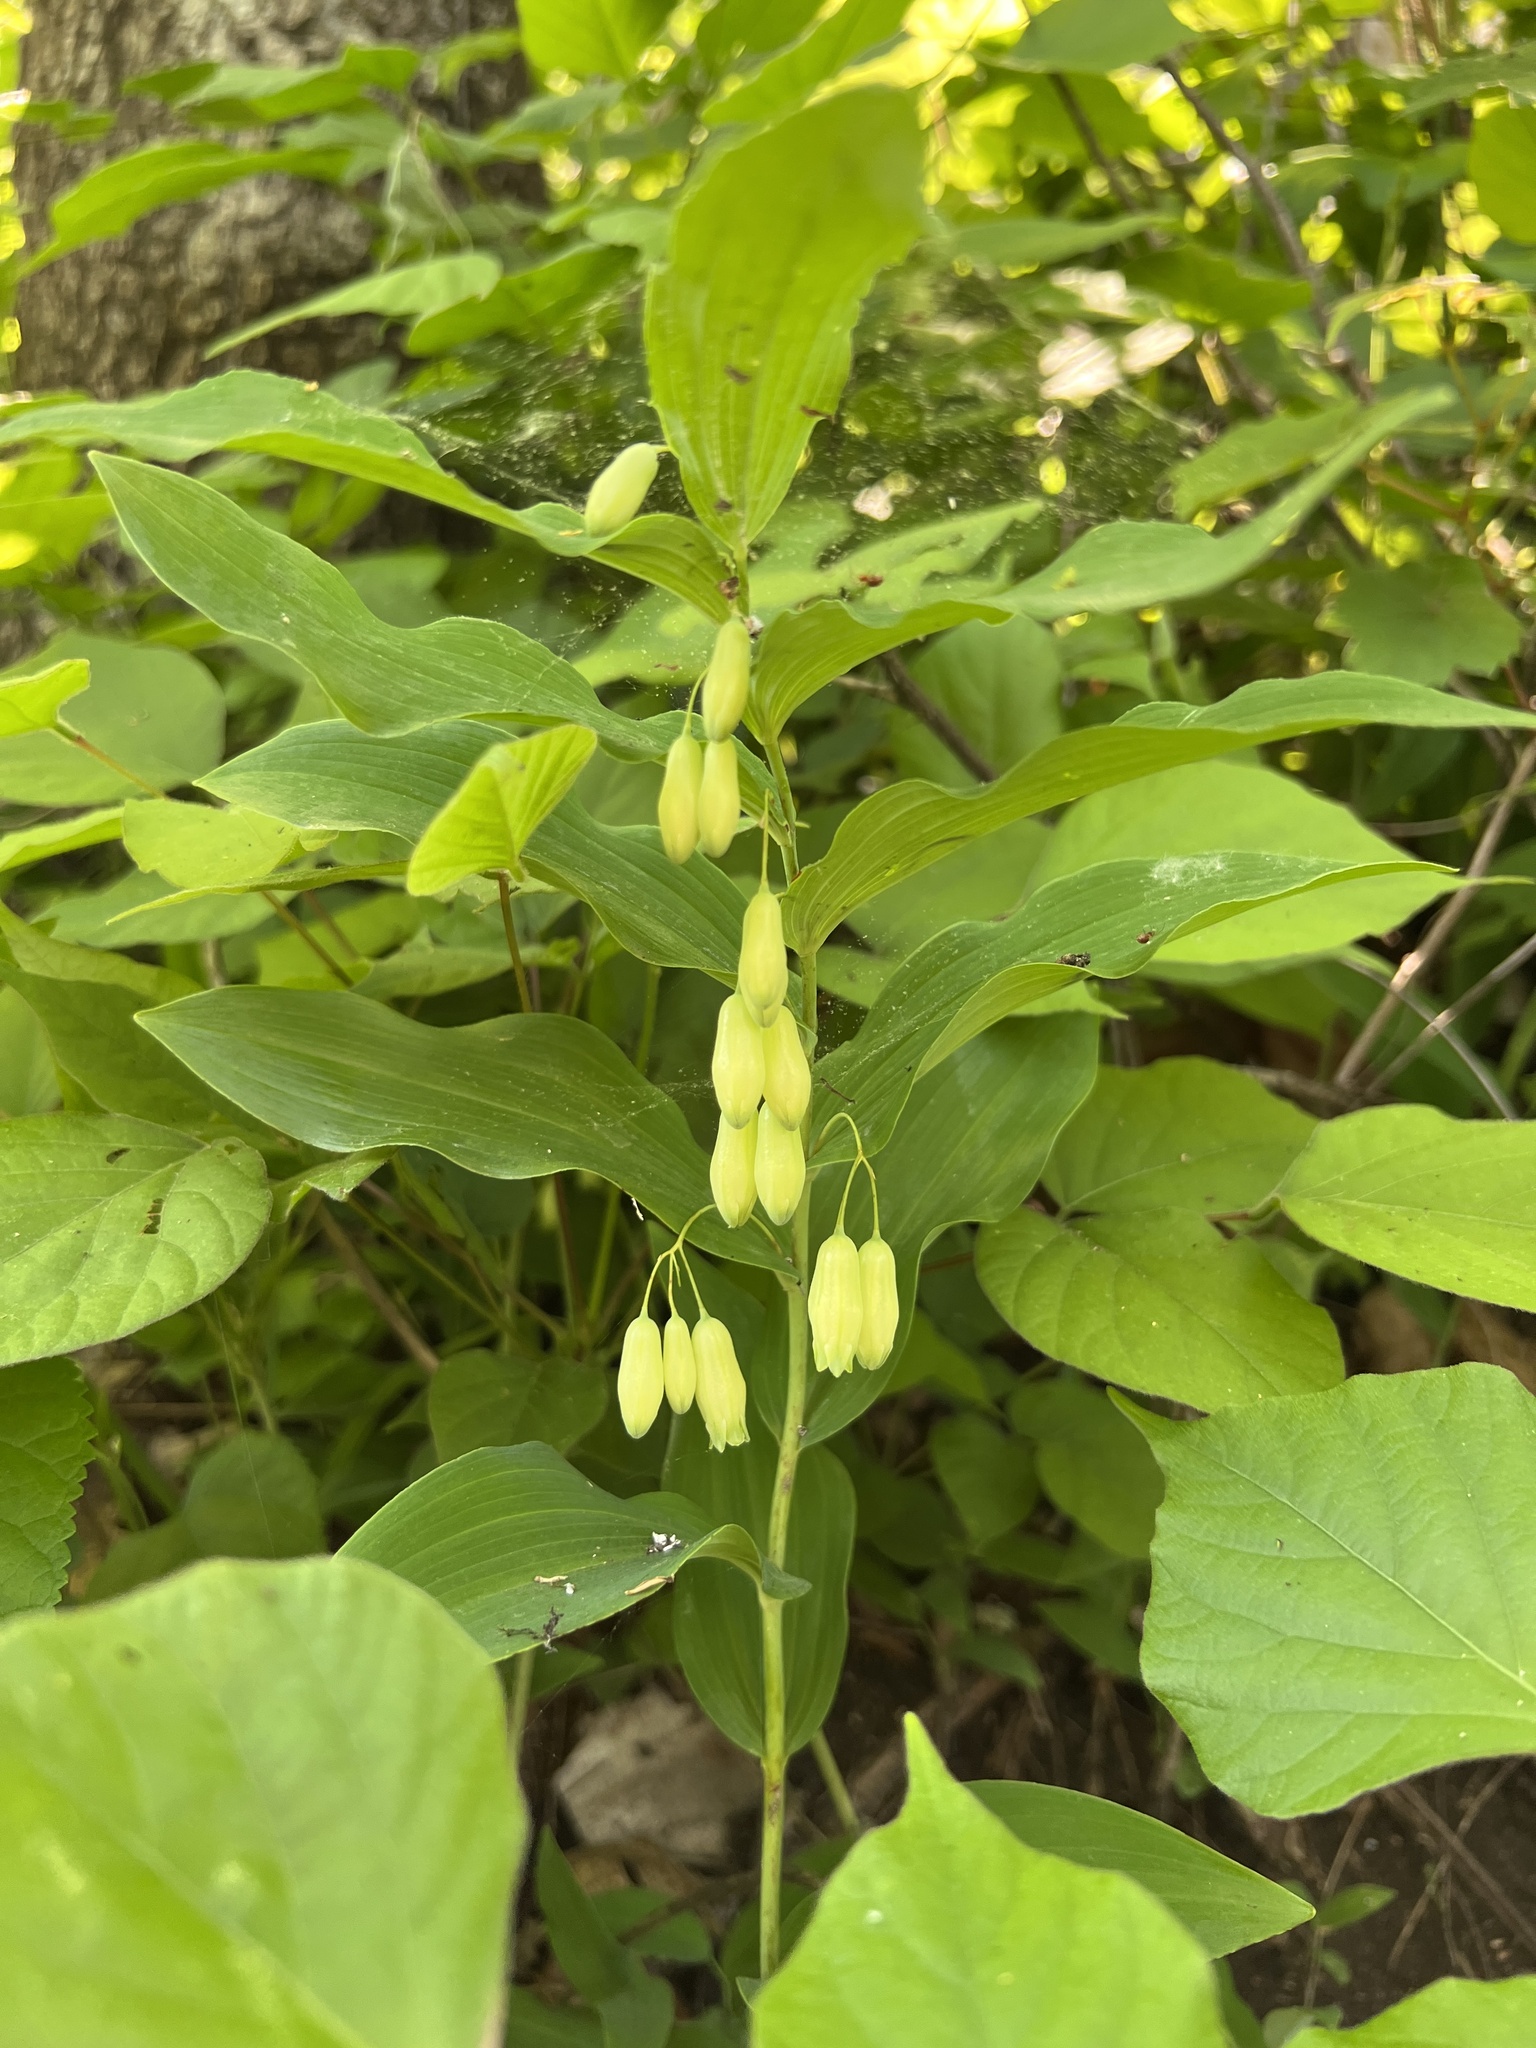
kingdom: Plantae
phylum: Tracheophyta
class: Liliopsida
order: Asparagales
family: Asparagaceae
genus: Polygonatum
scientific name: Polygonatum biflorum
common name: American solomon's-seal
